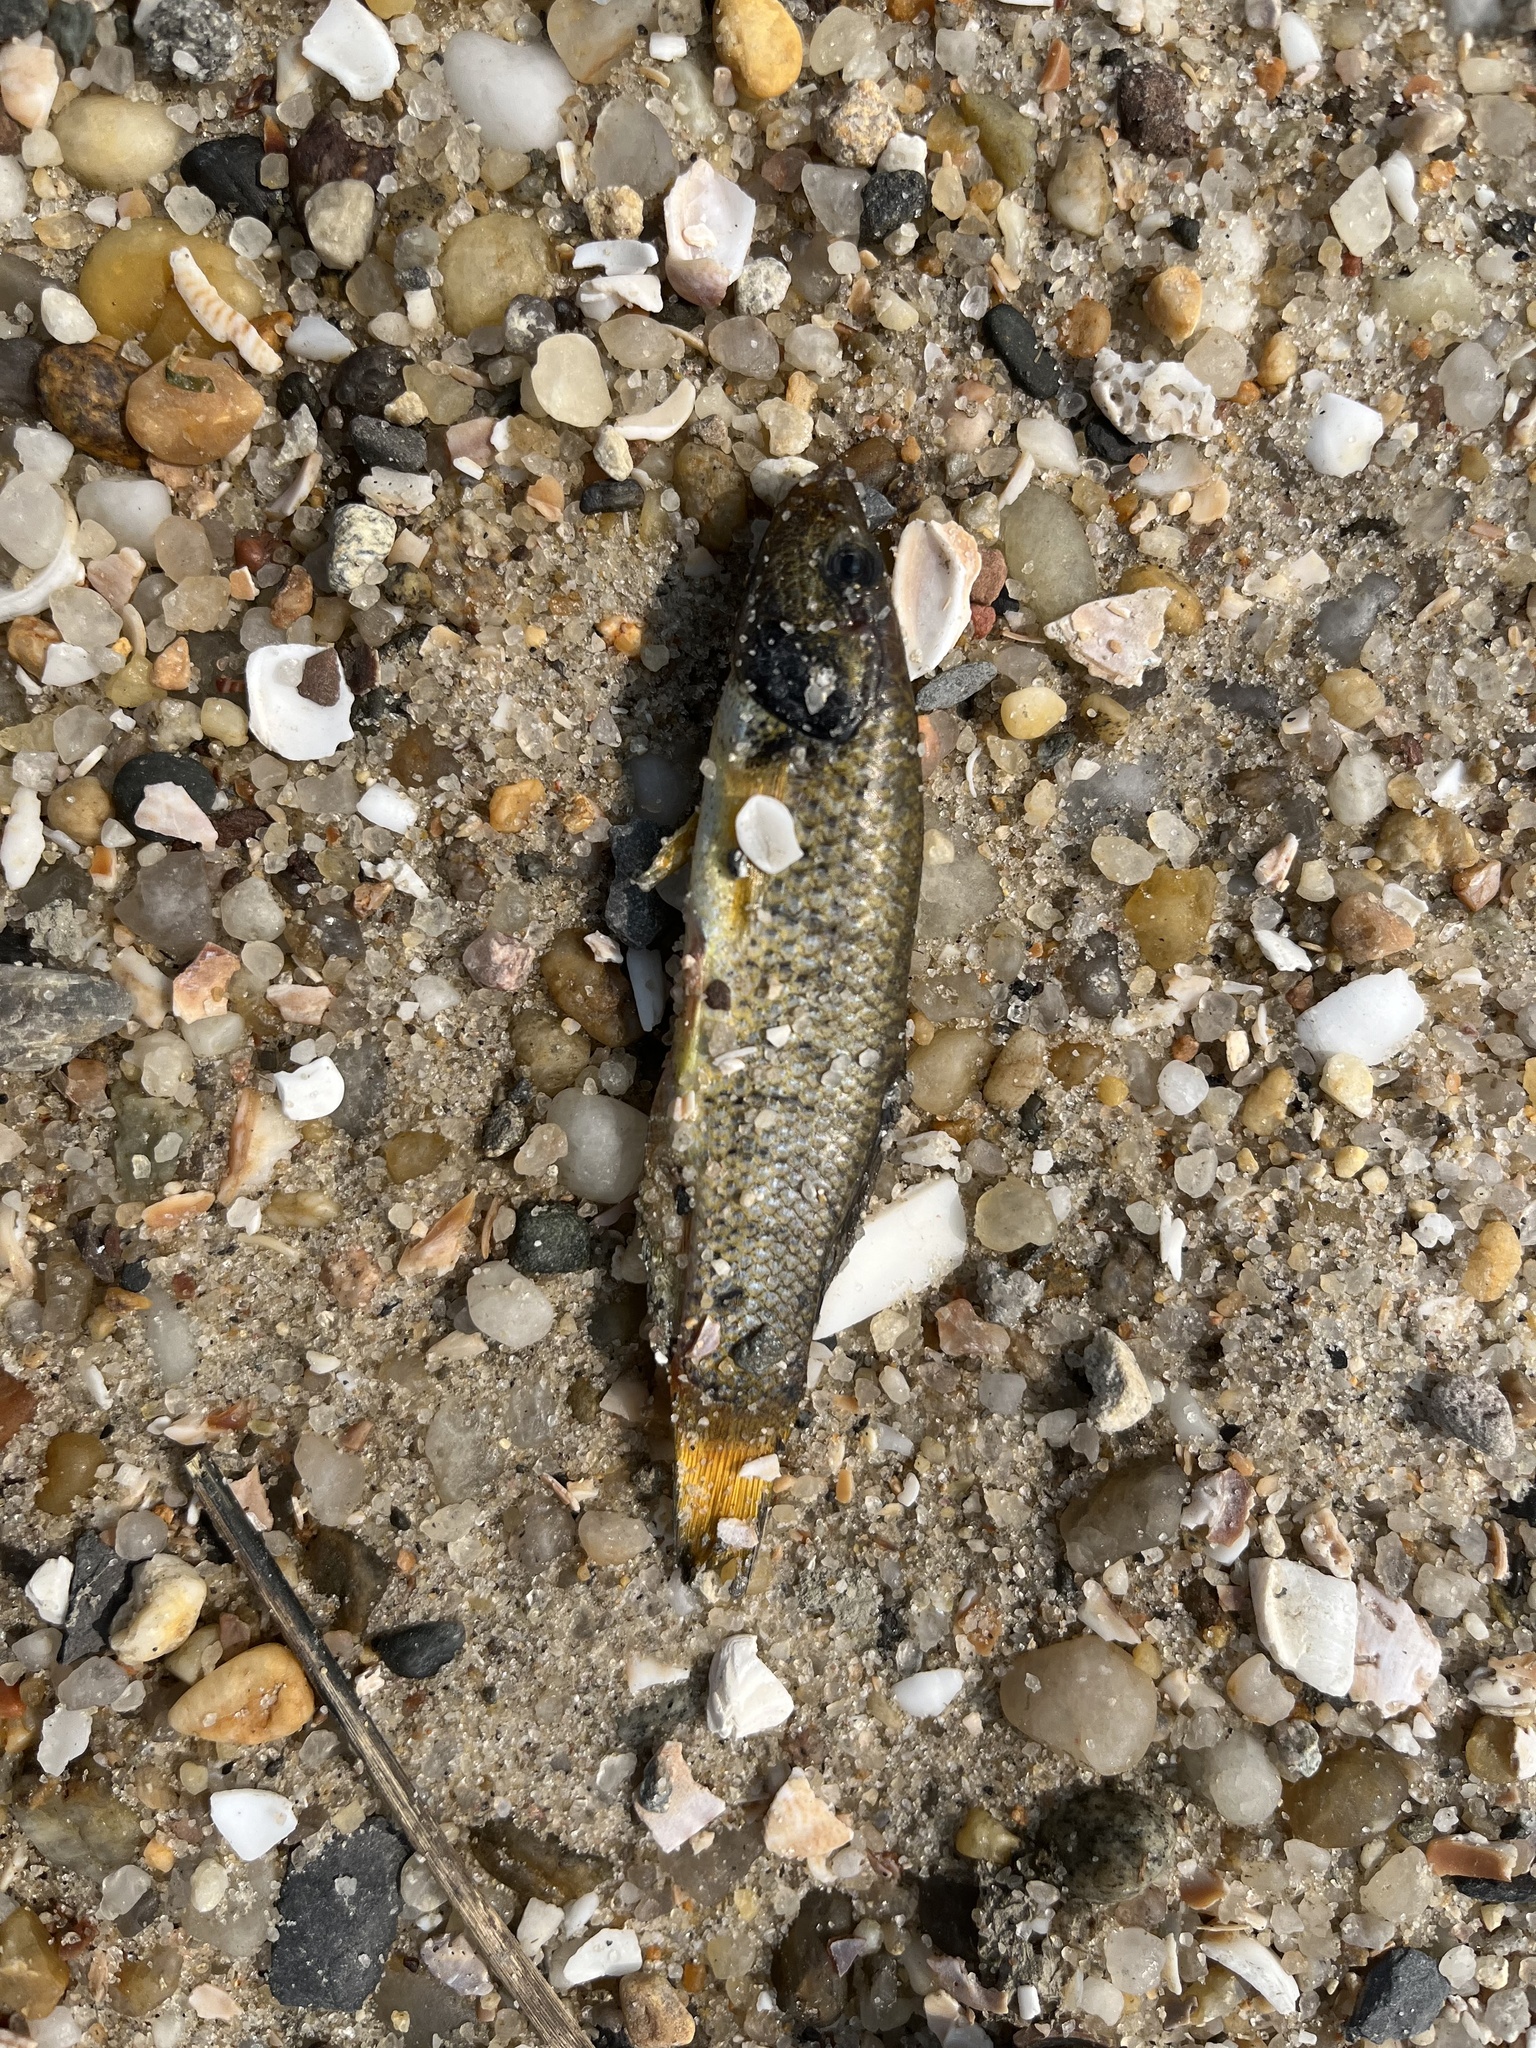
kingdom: Animalia
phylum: Chordata
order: Cyprinodontiformes
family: Fundulidae
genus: Fundulus
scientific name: Fundulus majalis
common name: Striped killifish
